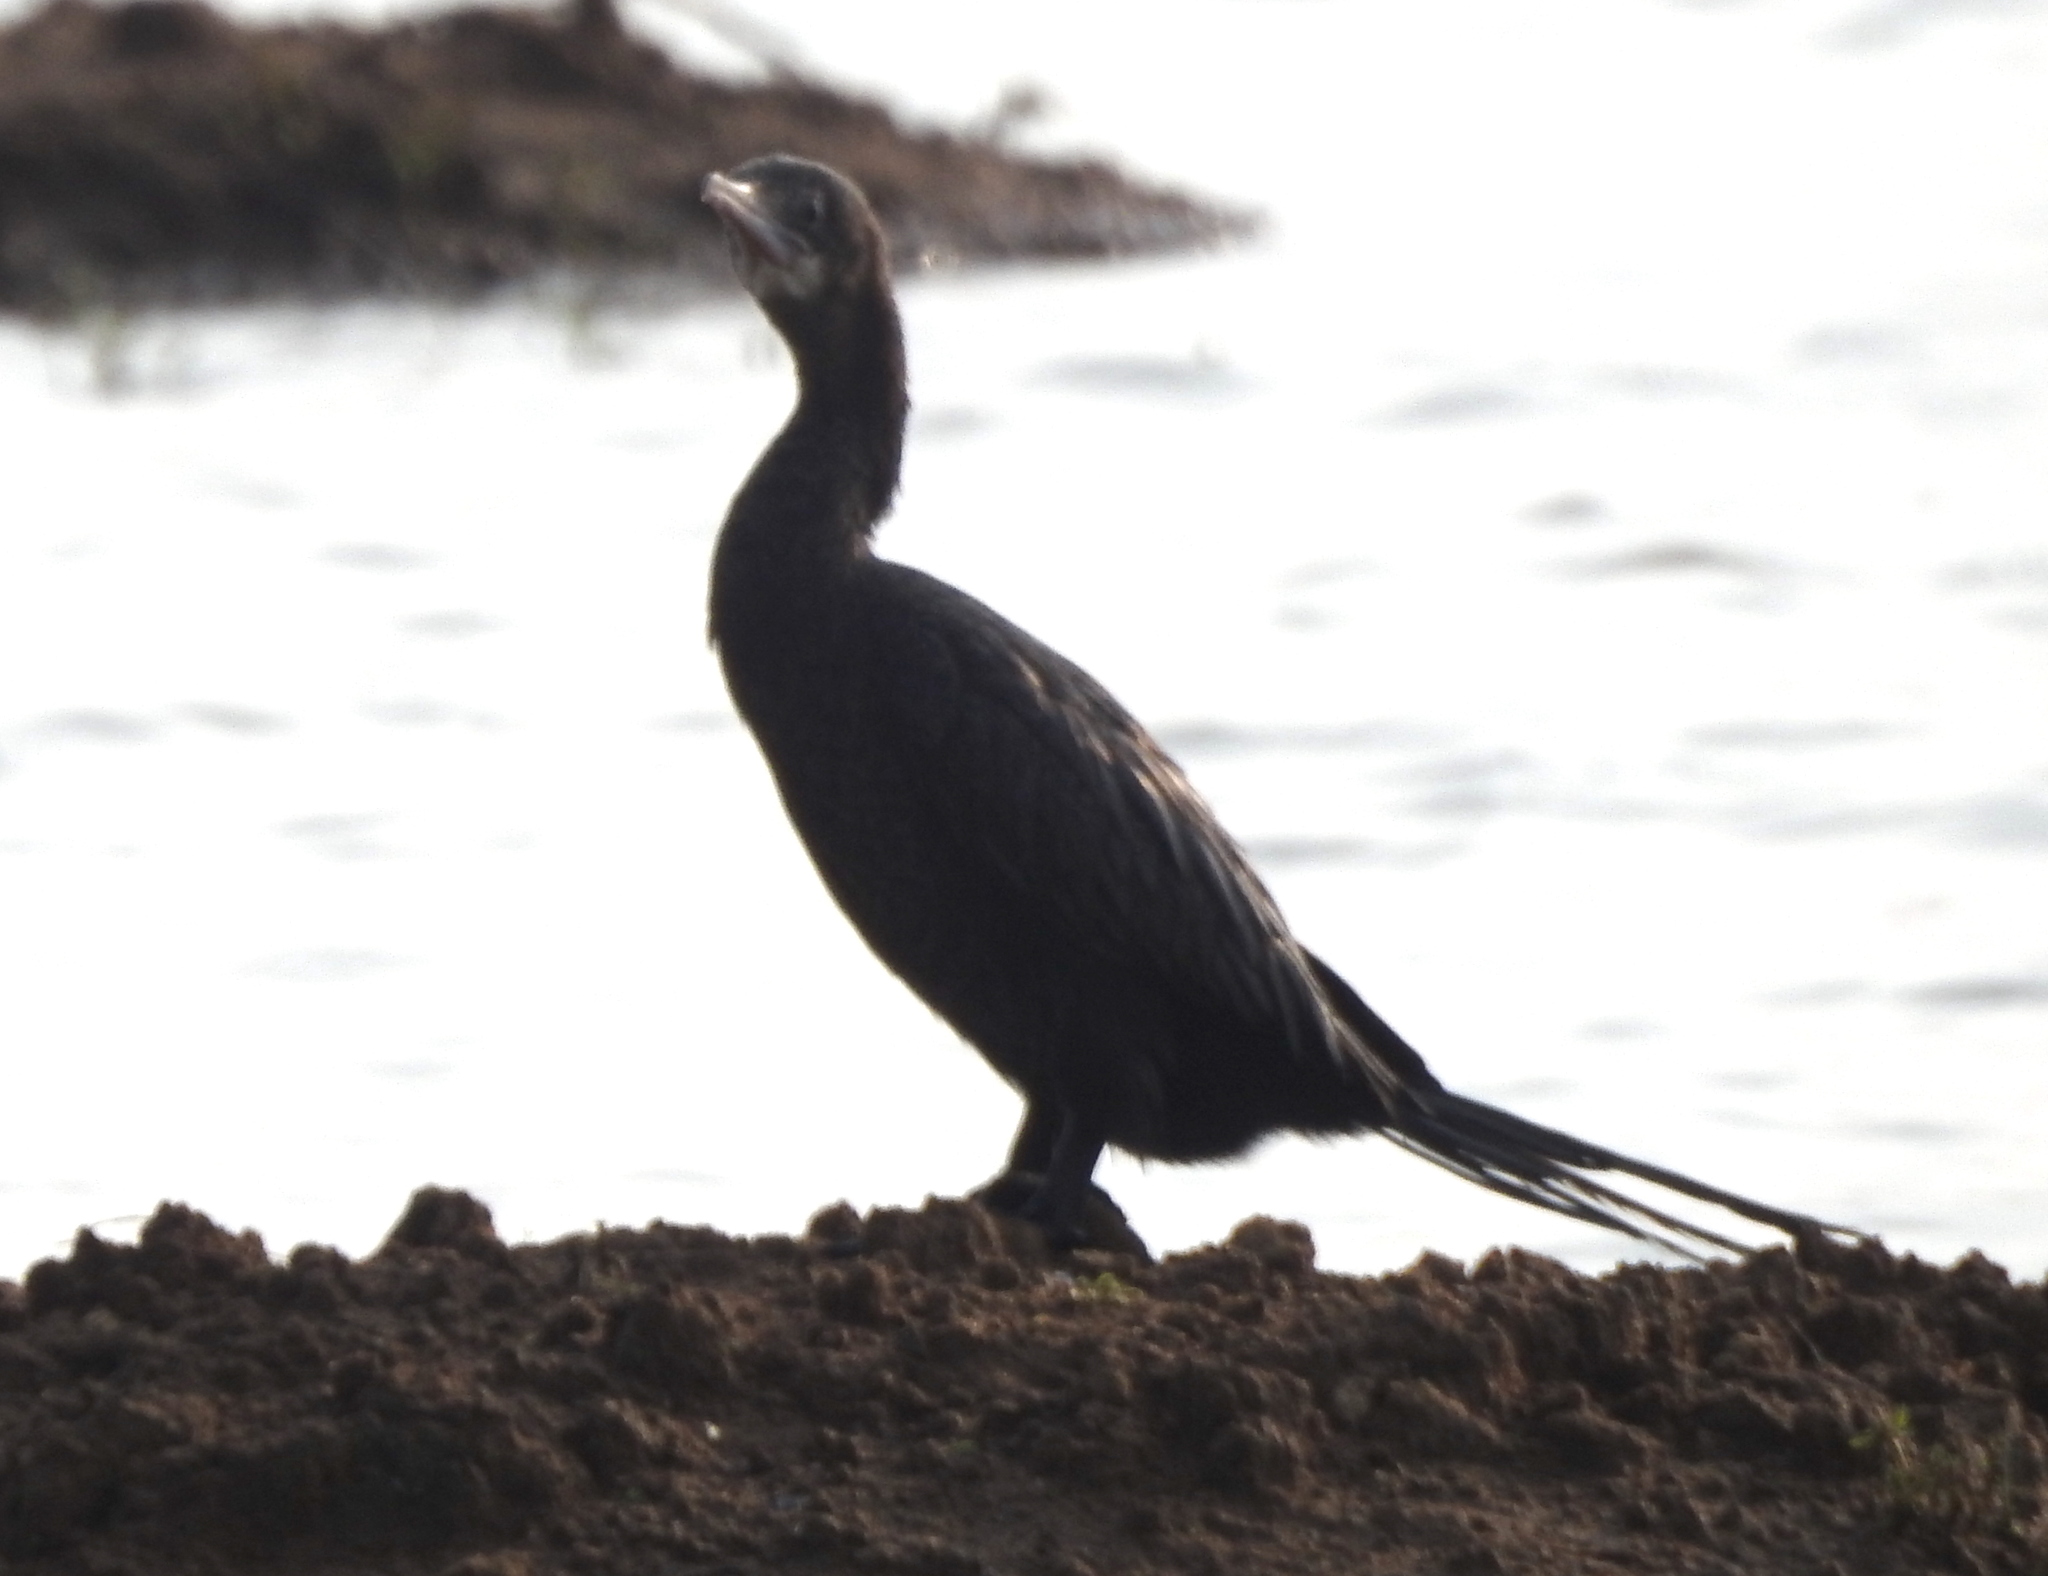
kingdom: Animalia
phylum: Chordata
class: Aves
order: Suliformes
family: Phalacrocoracidae
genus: Microcarbo
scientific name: Microcarbo niger
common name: Little cormorant
